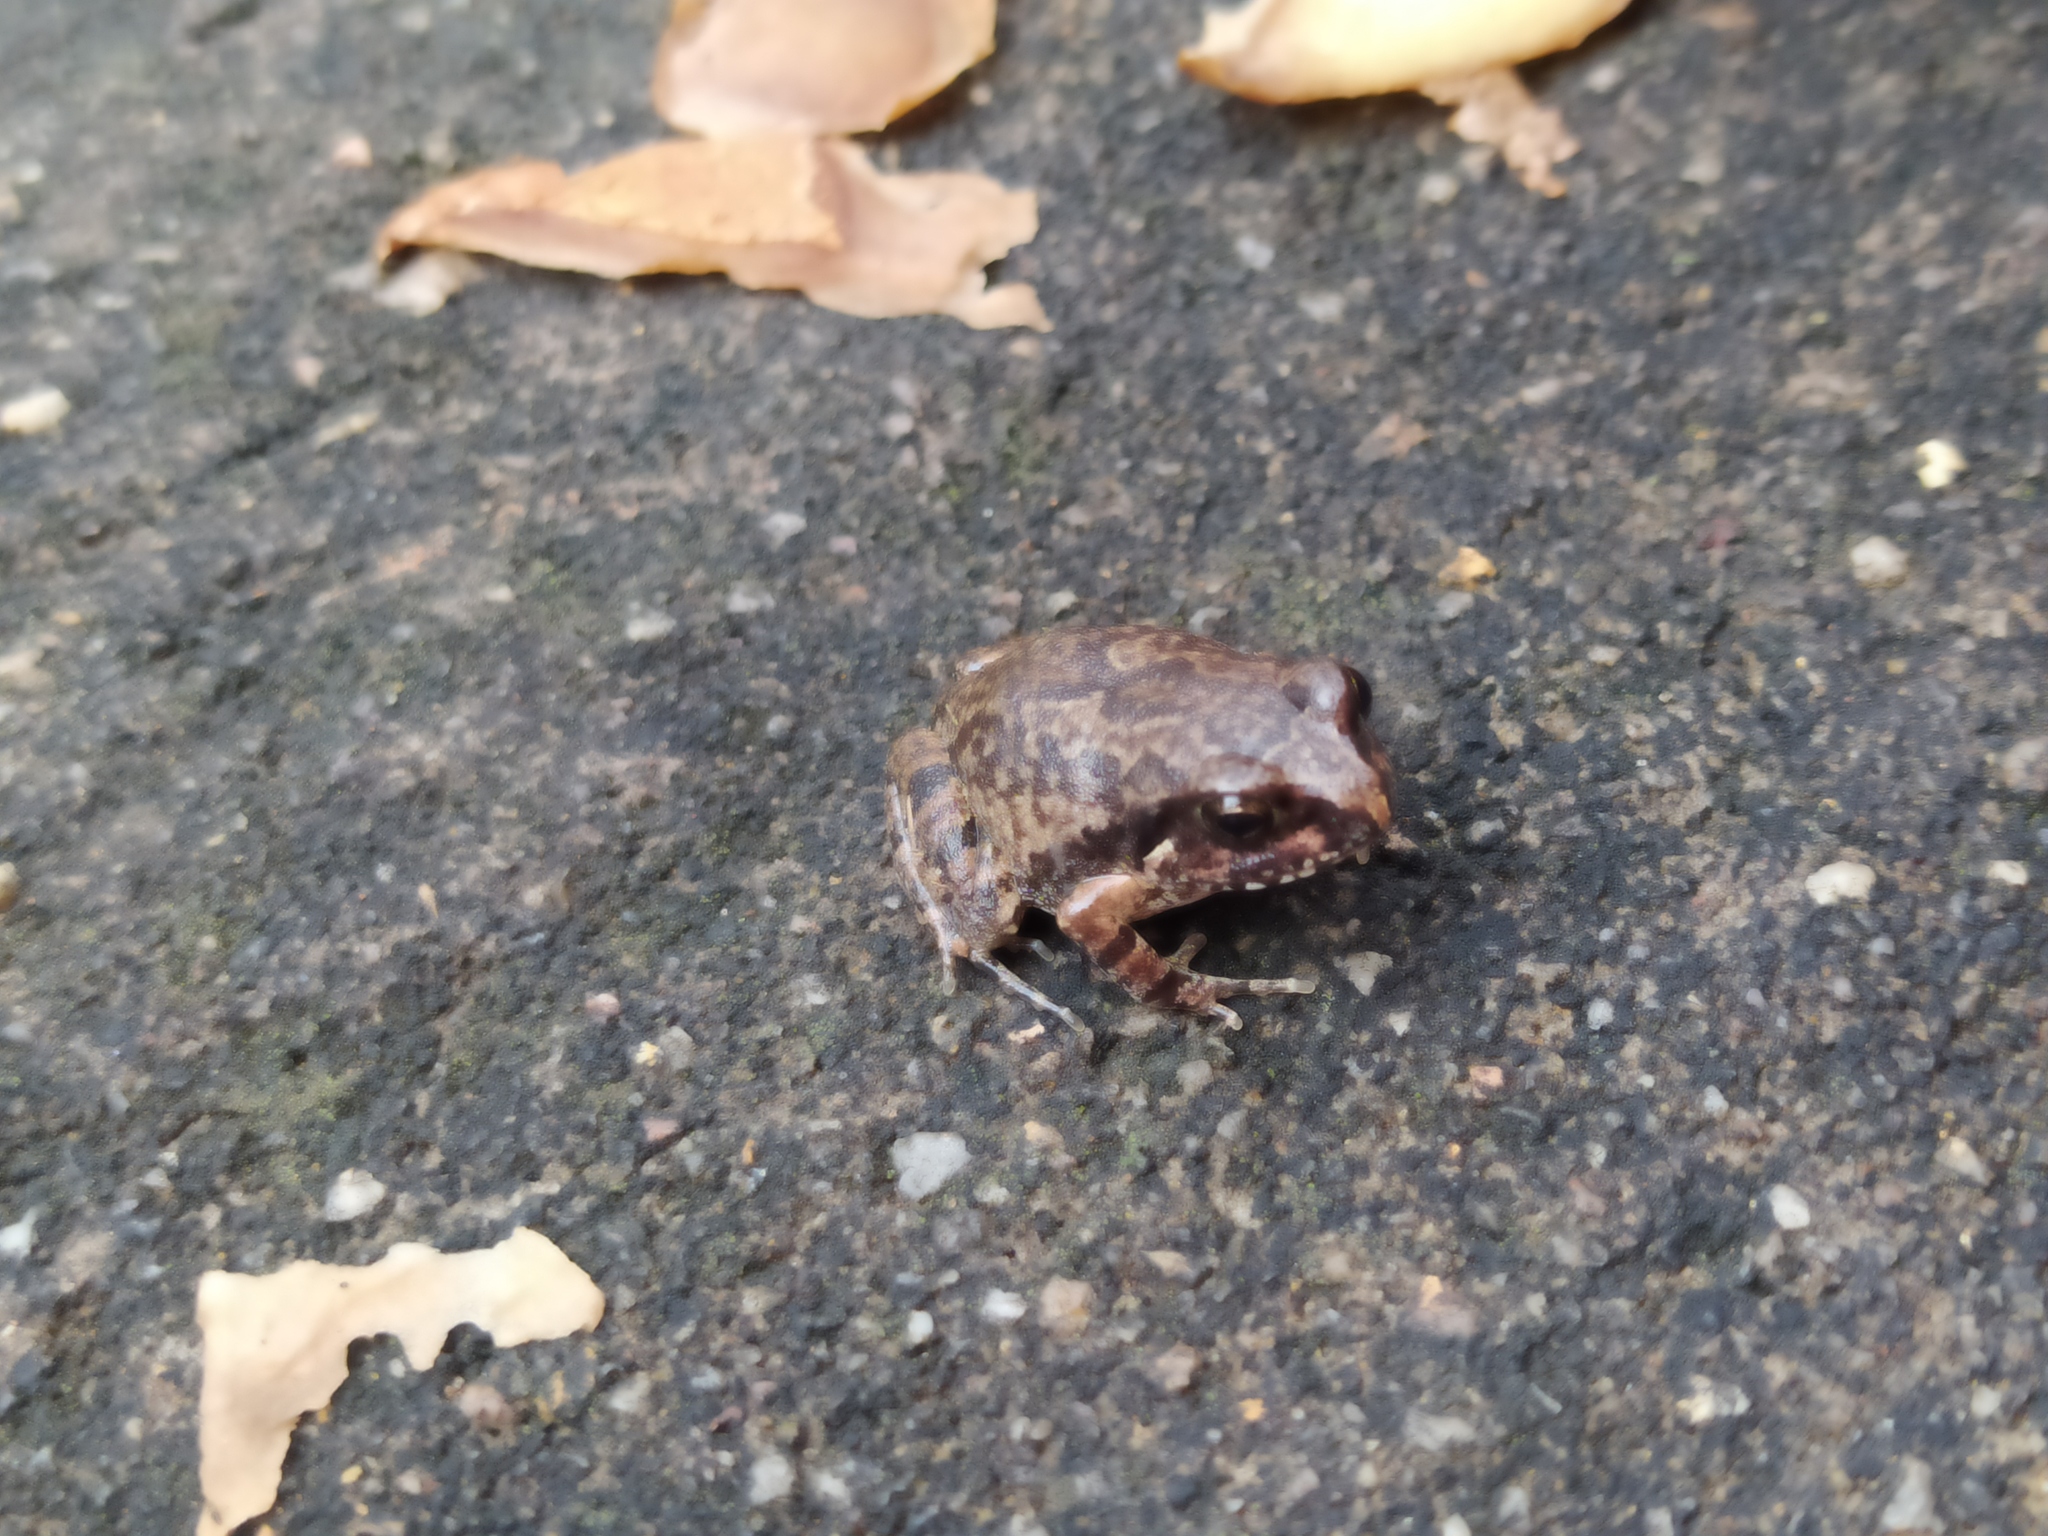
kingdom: Animalia
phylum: Chordata
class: Amphibia
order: Anura
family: Arthroleptidae
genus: Arthroleptis
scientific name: Arthroleptis stenodactylus
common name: Dune squeaker
